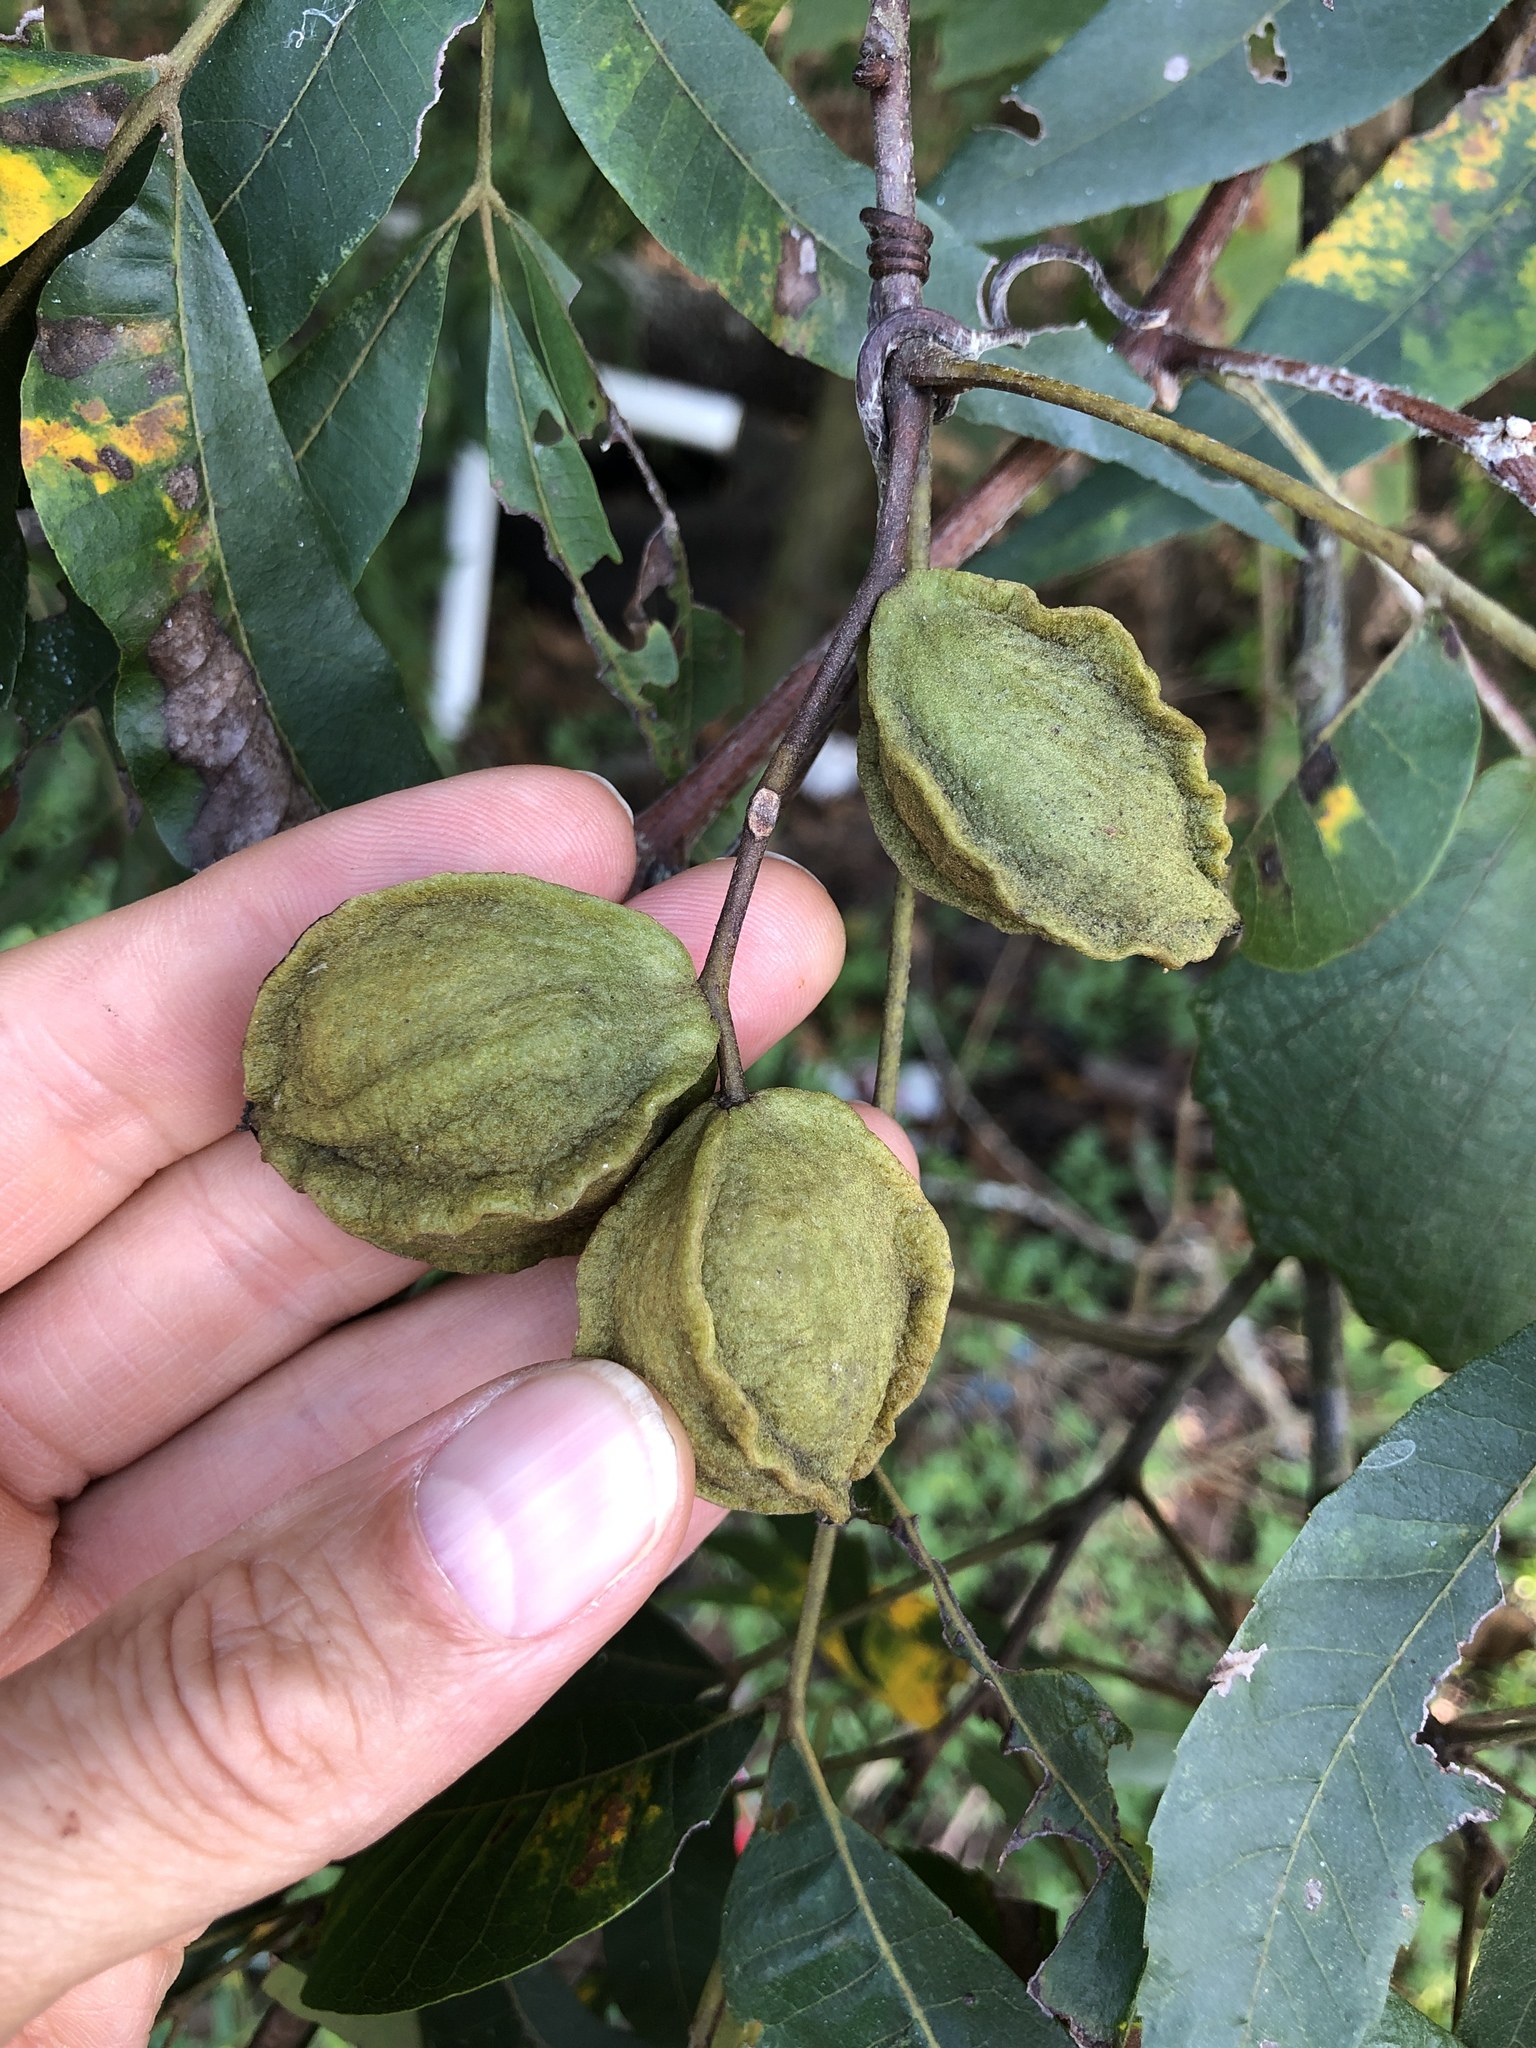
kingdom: Plantae
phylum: Tracheophyta
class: Magnoliopsida
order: Fagales
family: Juglandaceae
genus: Carya
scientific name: Carya aquatica
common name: Water hickory
